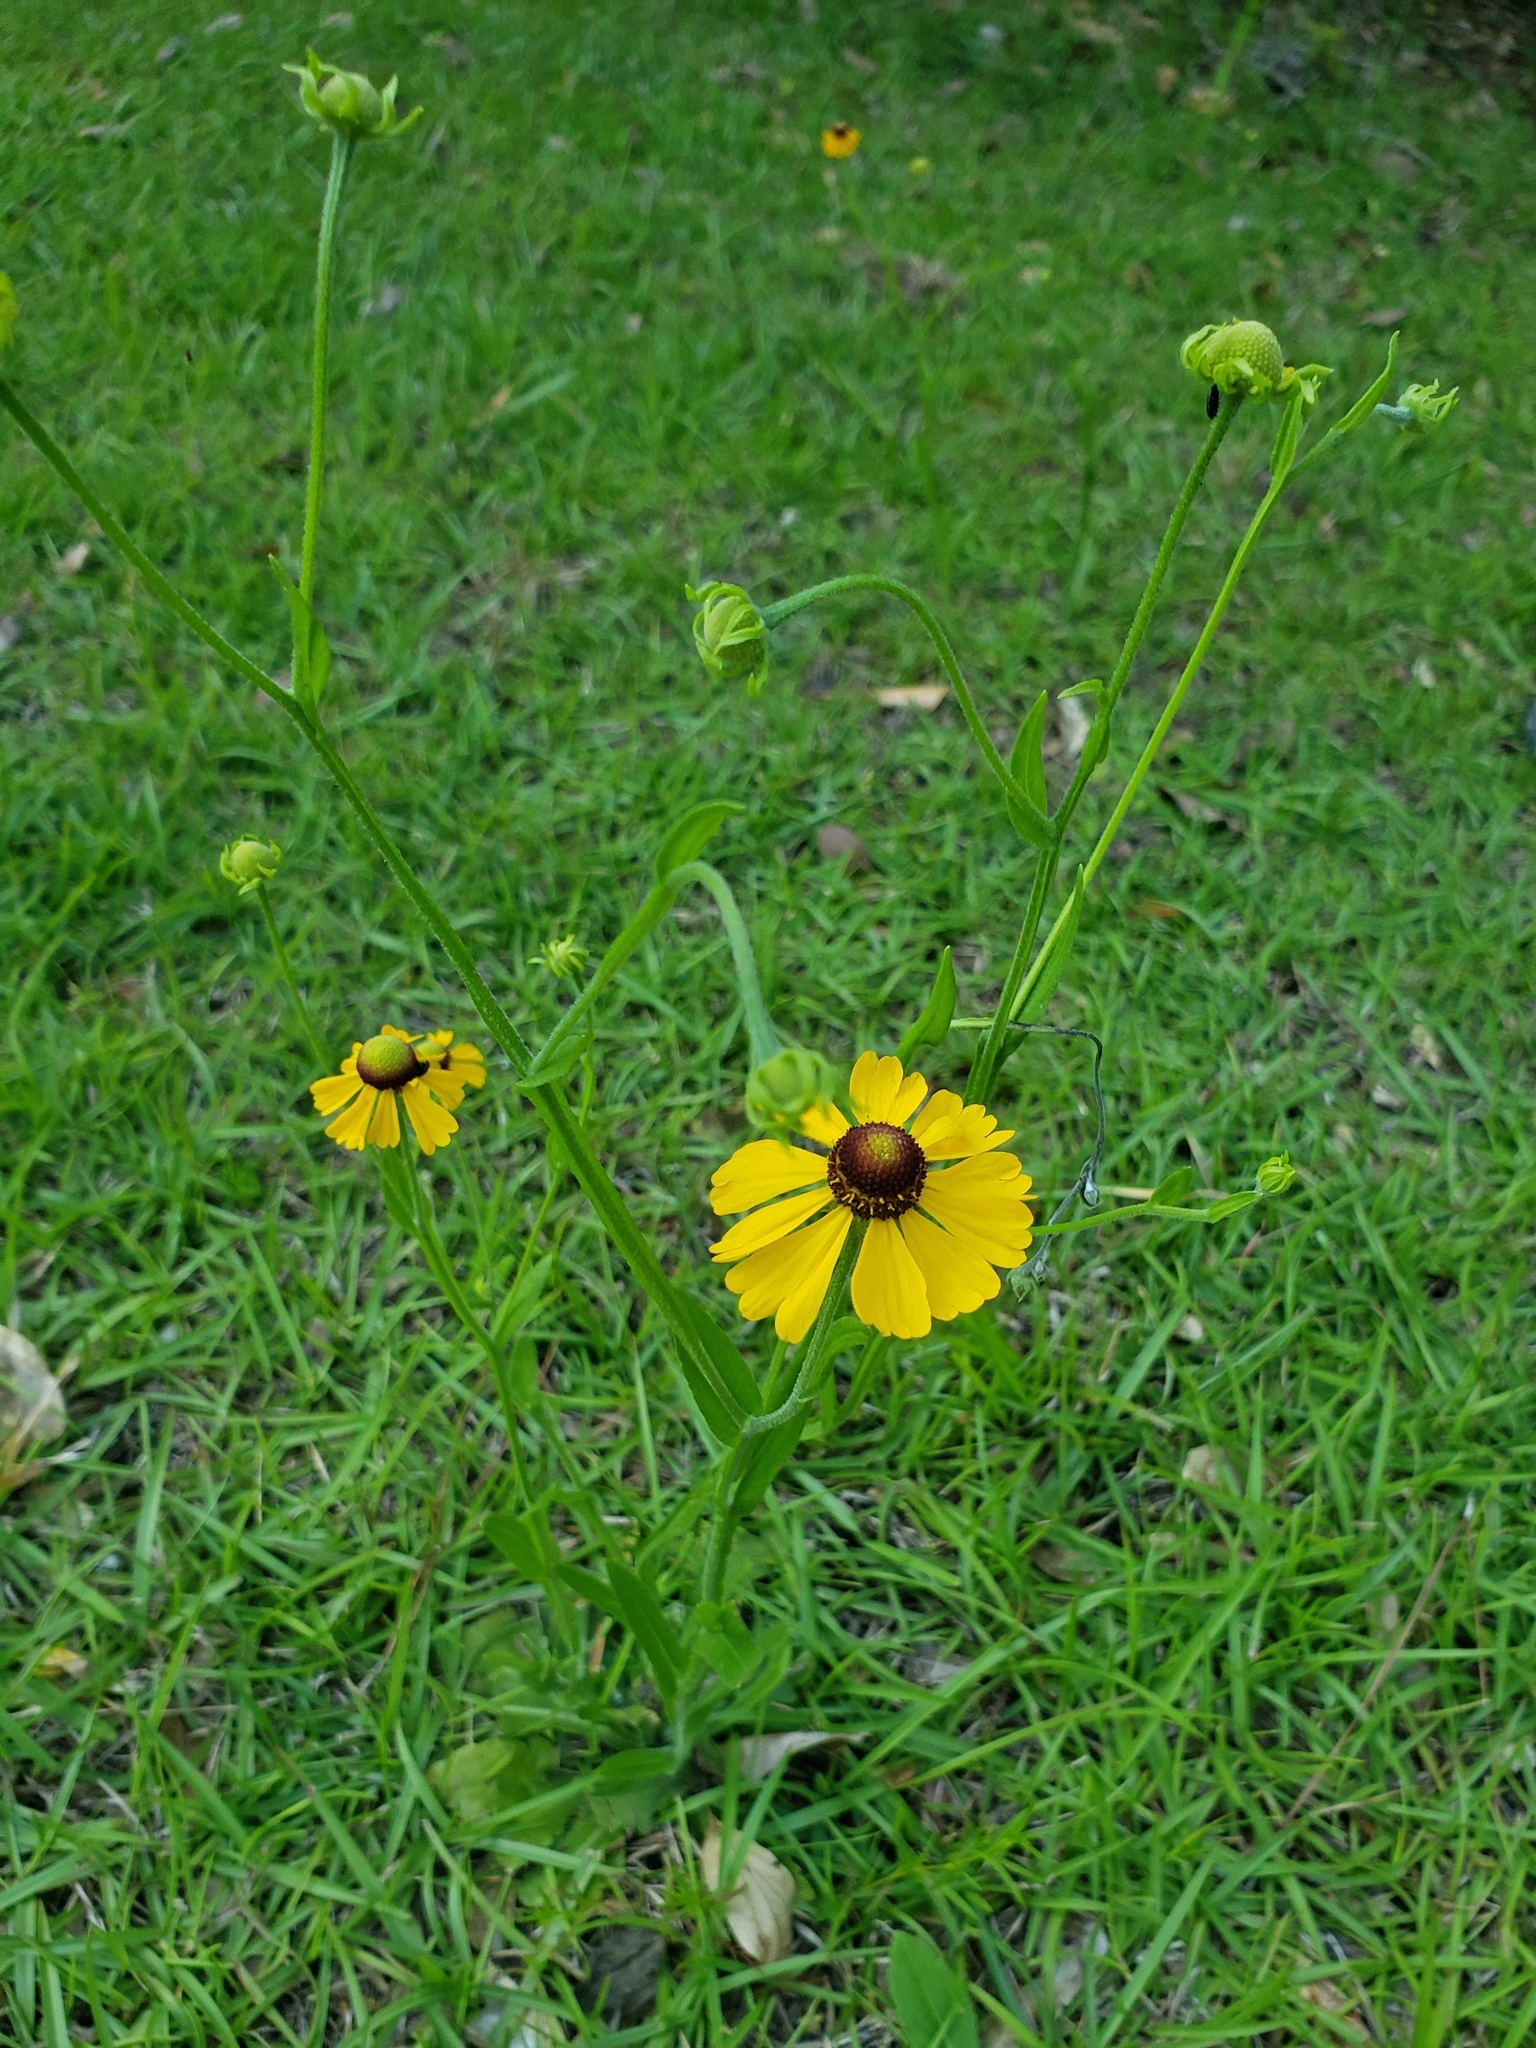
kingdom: Plantae
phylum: Tracheophyta
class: Magnoliopsida
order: Asterales
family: Asteraceae
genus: Helenium
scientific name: Helenium flexuosum
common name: Naked-flowered sneezeweed
